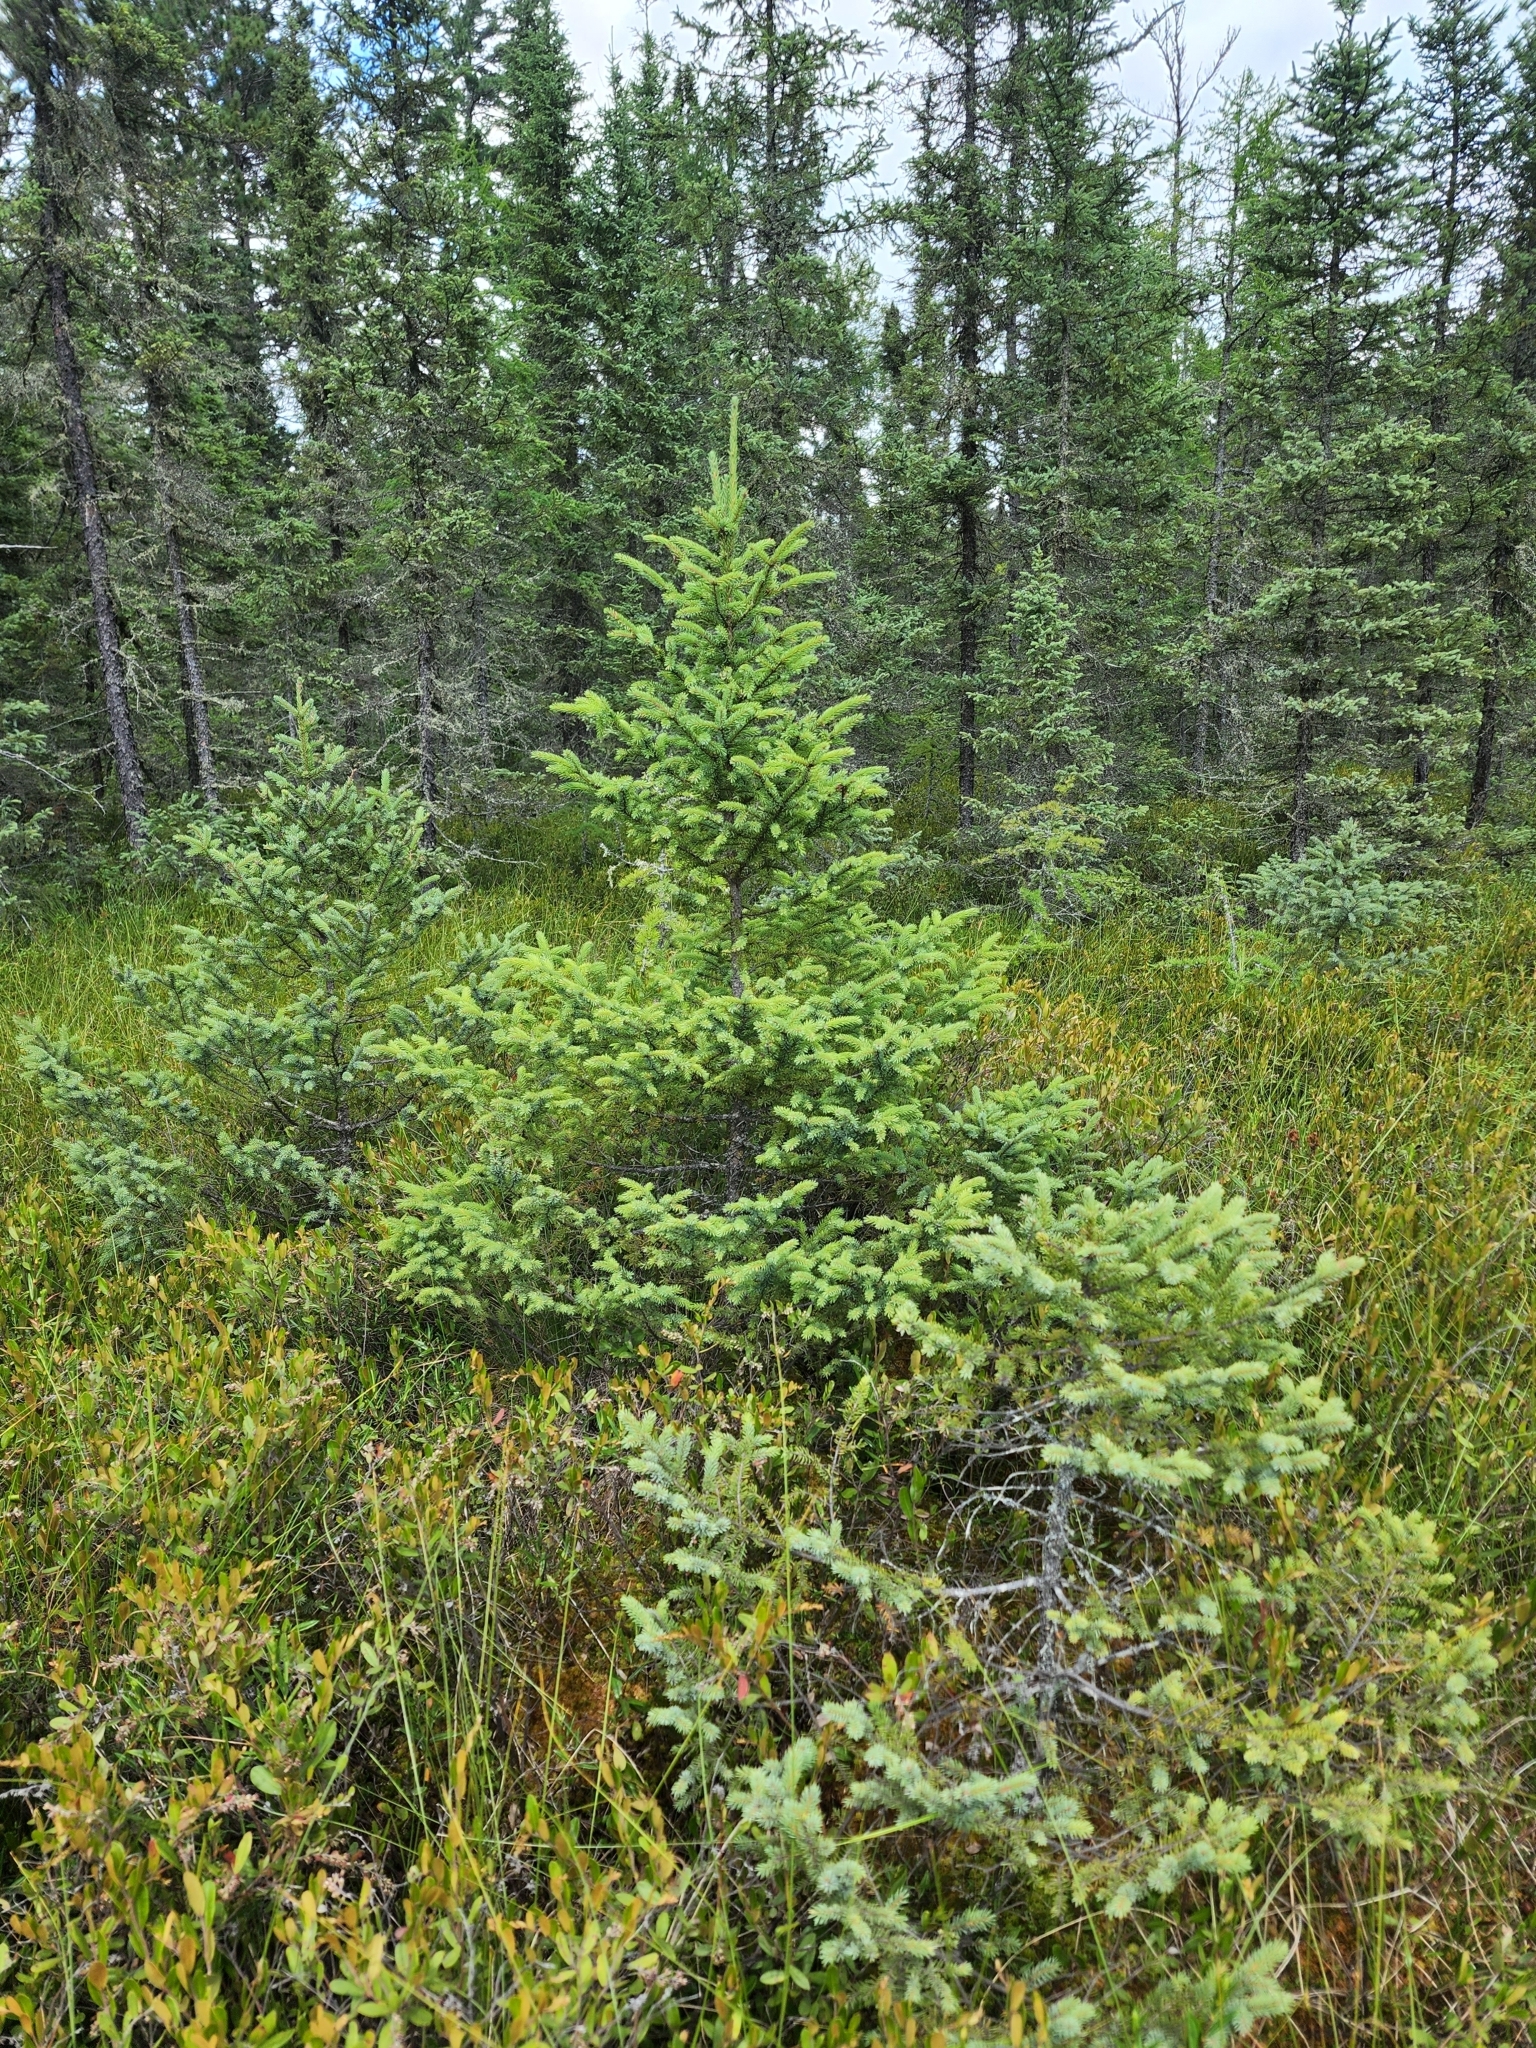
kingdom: Plantae
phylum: Tracheophyta
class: Pinopsida
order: Pinales
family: Pinaceae
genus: Picea
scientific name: Picea mariana
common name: Black spruce
